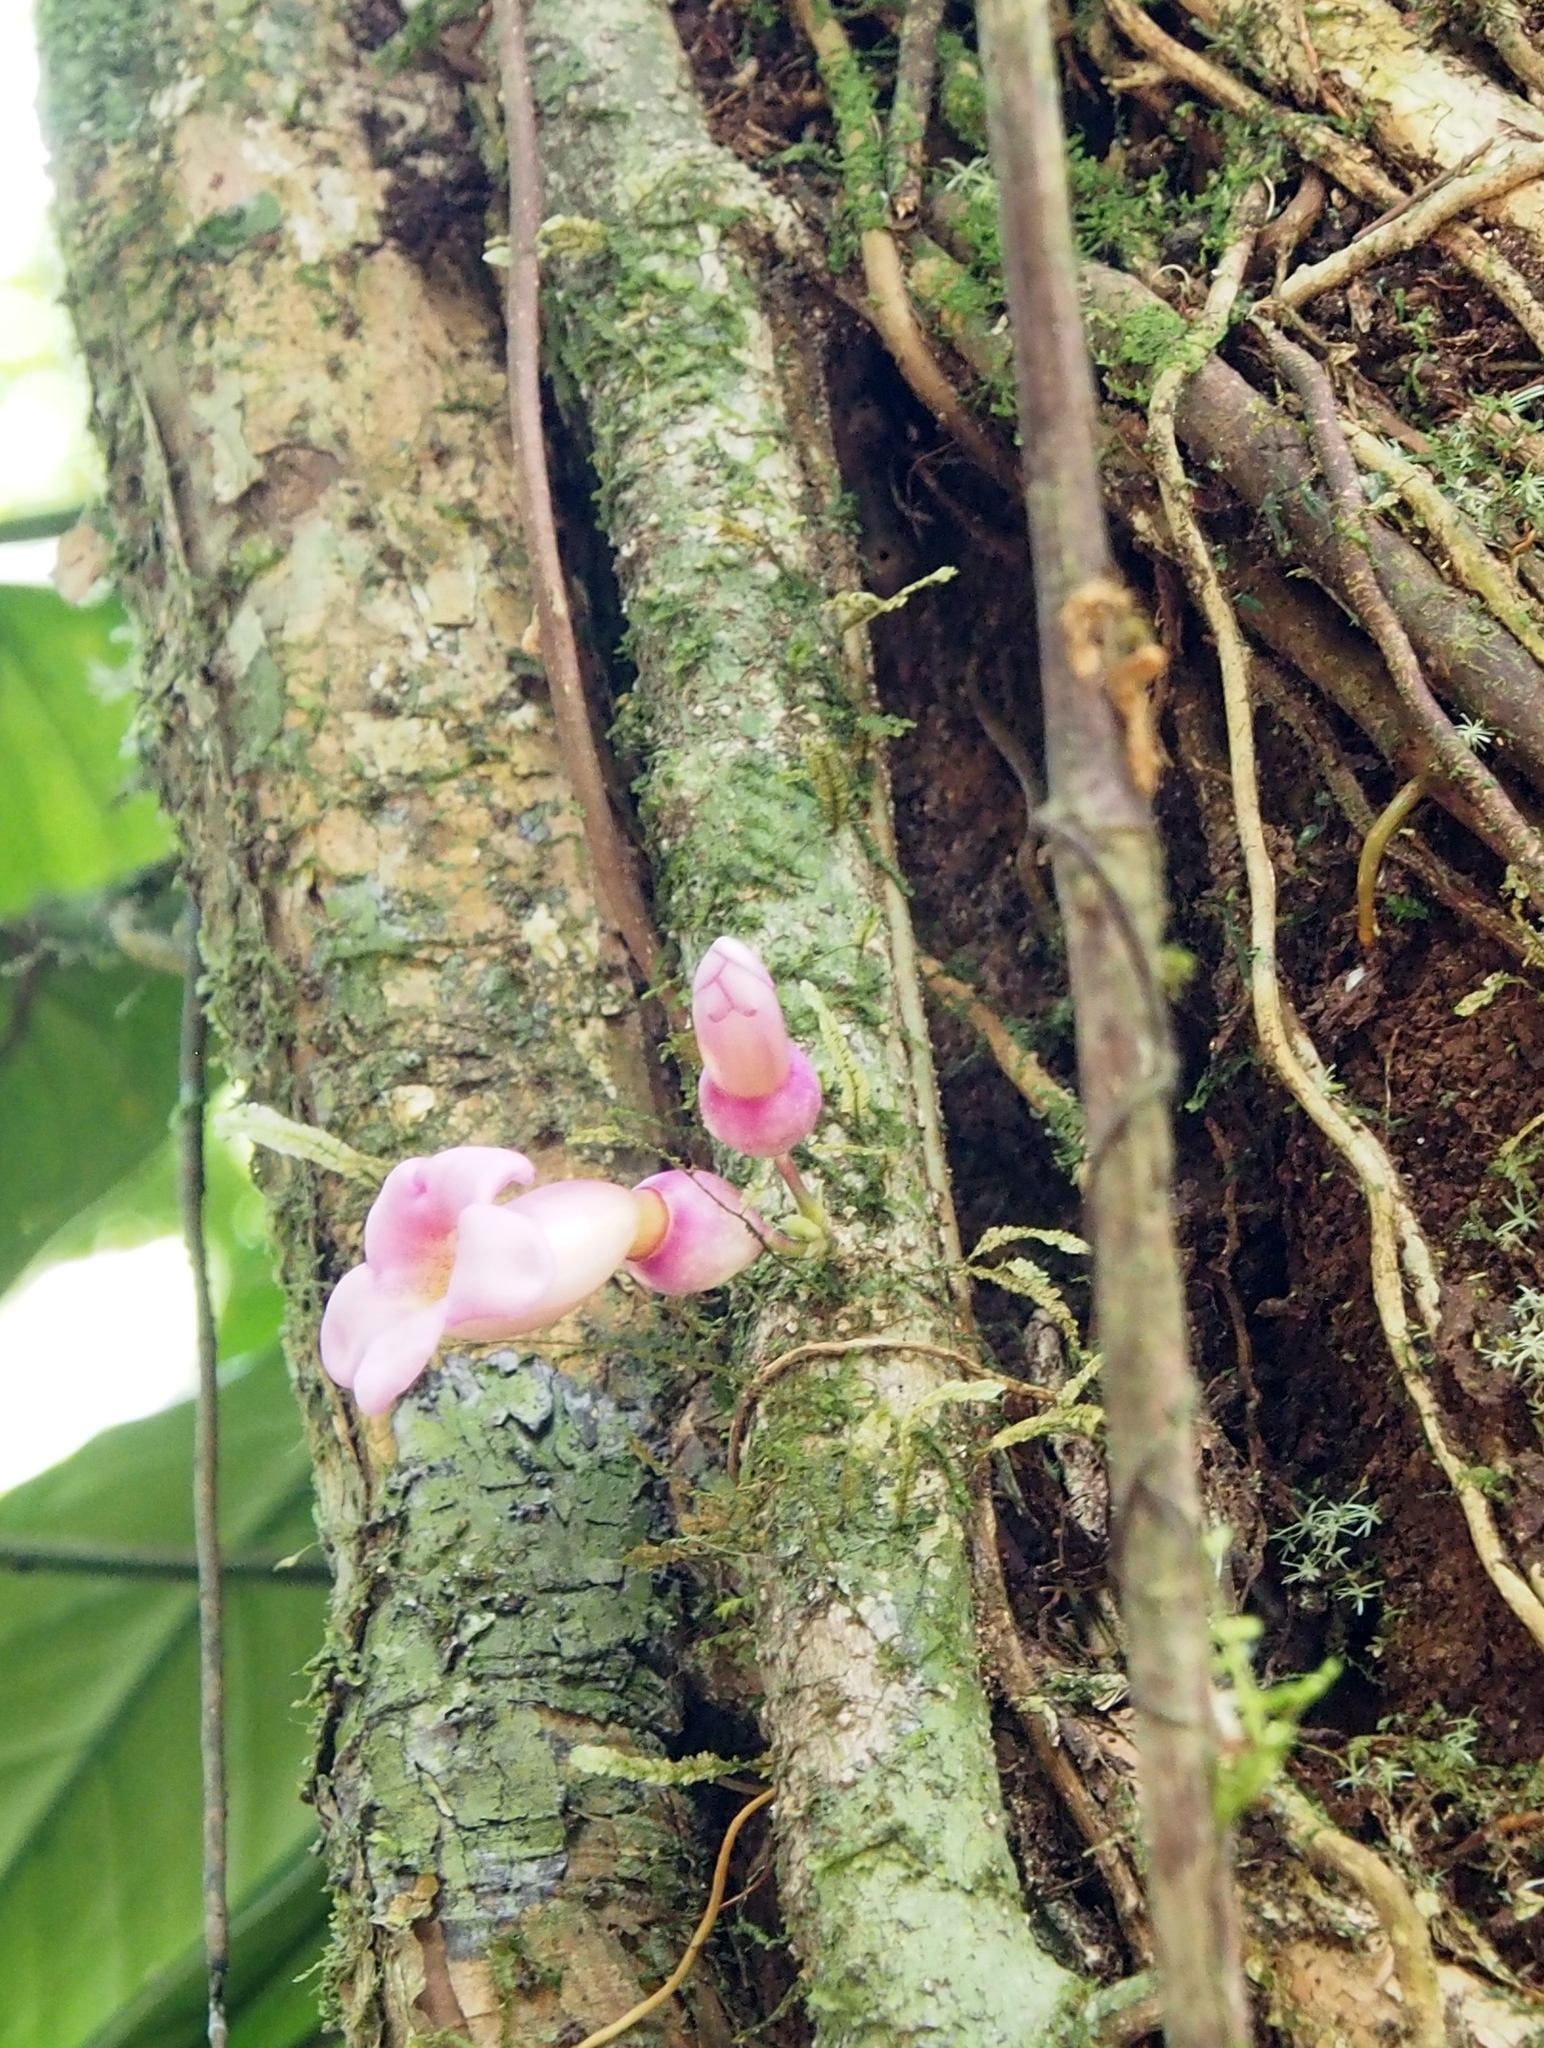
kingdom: Plantae
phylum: Tracheophyta
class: Magnoliopsida
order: Lamiales
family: Schlegeliaceae
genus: Schlegelia
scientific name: Schlegelia nicaraguensis
